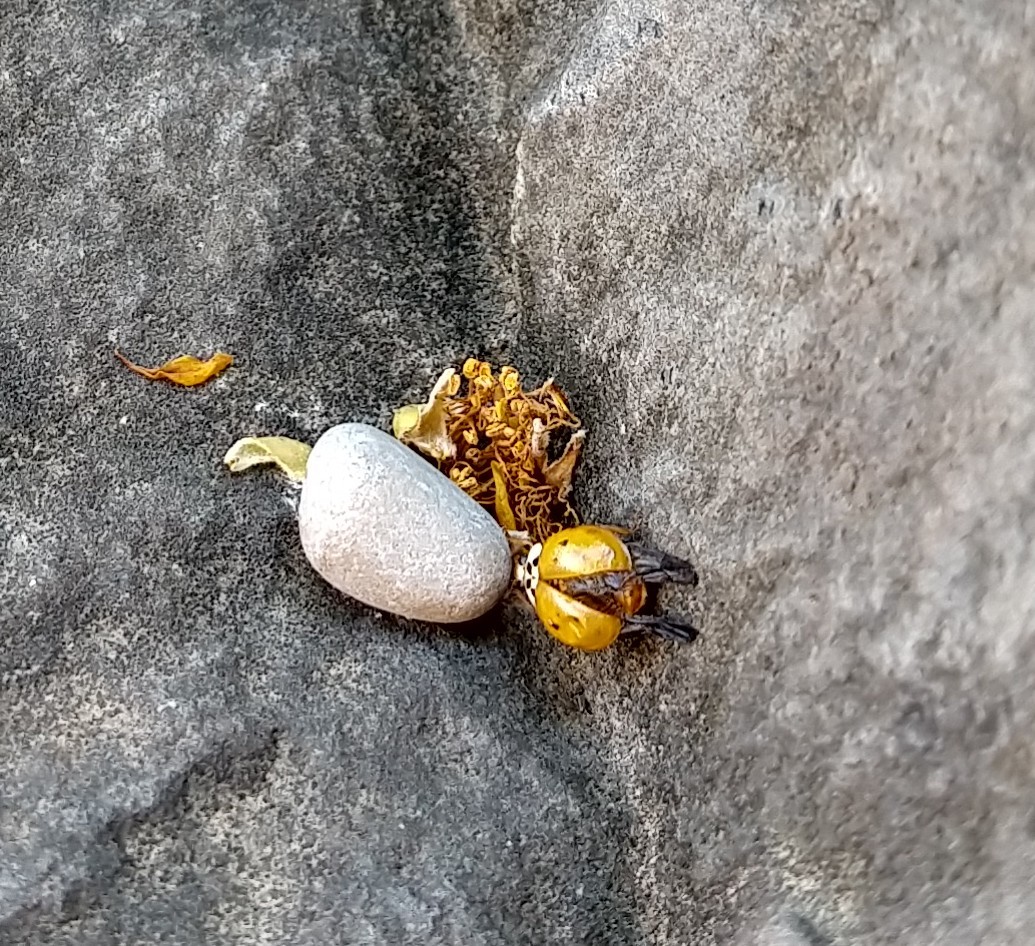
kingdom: Animalia
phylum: Arthropoda
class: Insecta
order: Coleoptera
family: Coccinellidae
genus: Harmonia
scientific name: Harmonia axyridis
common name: Harlequin ladybird
